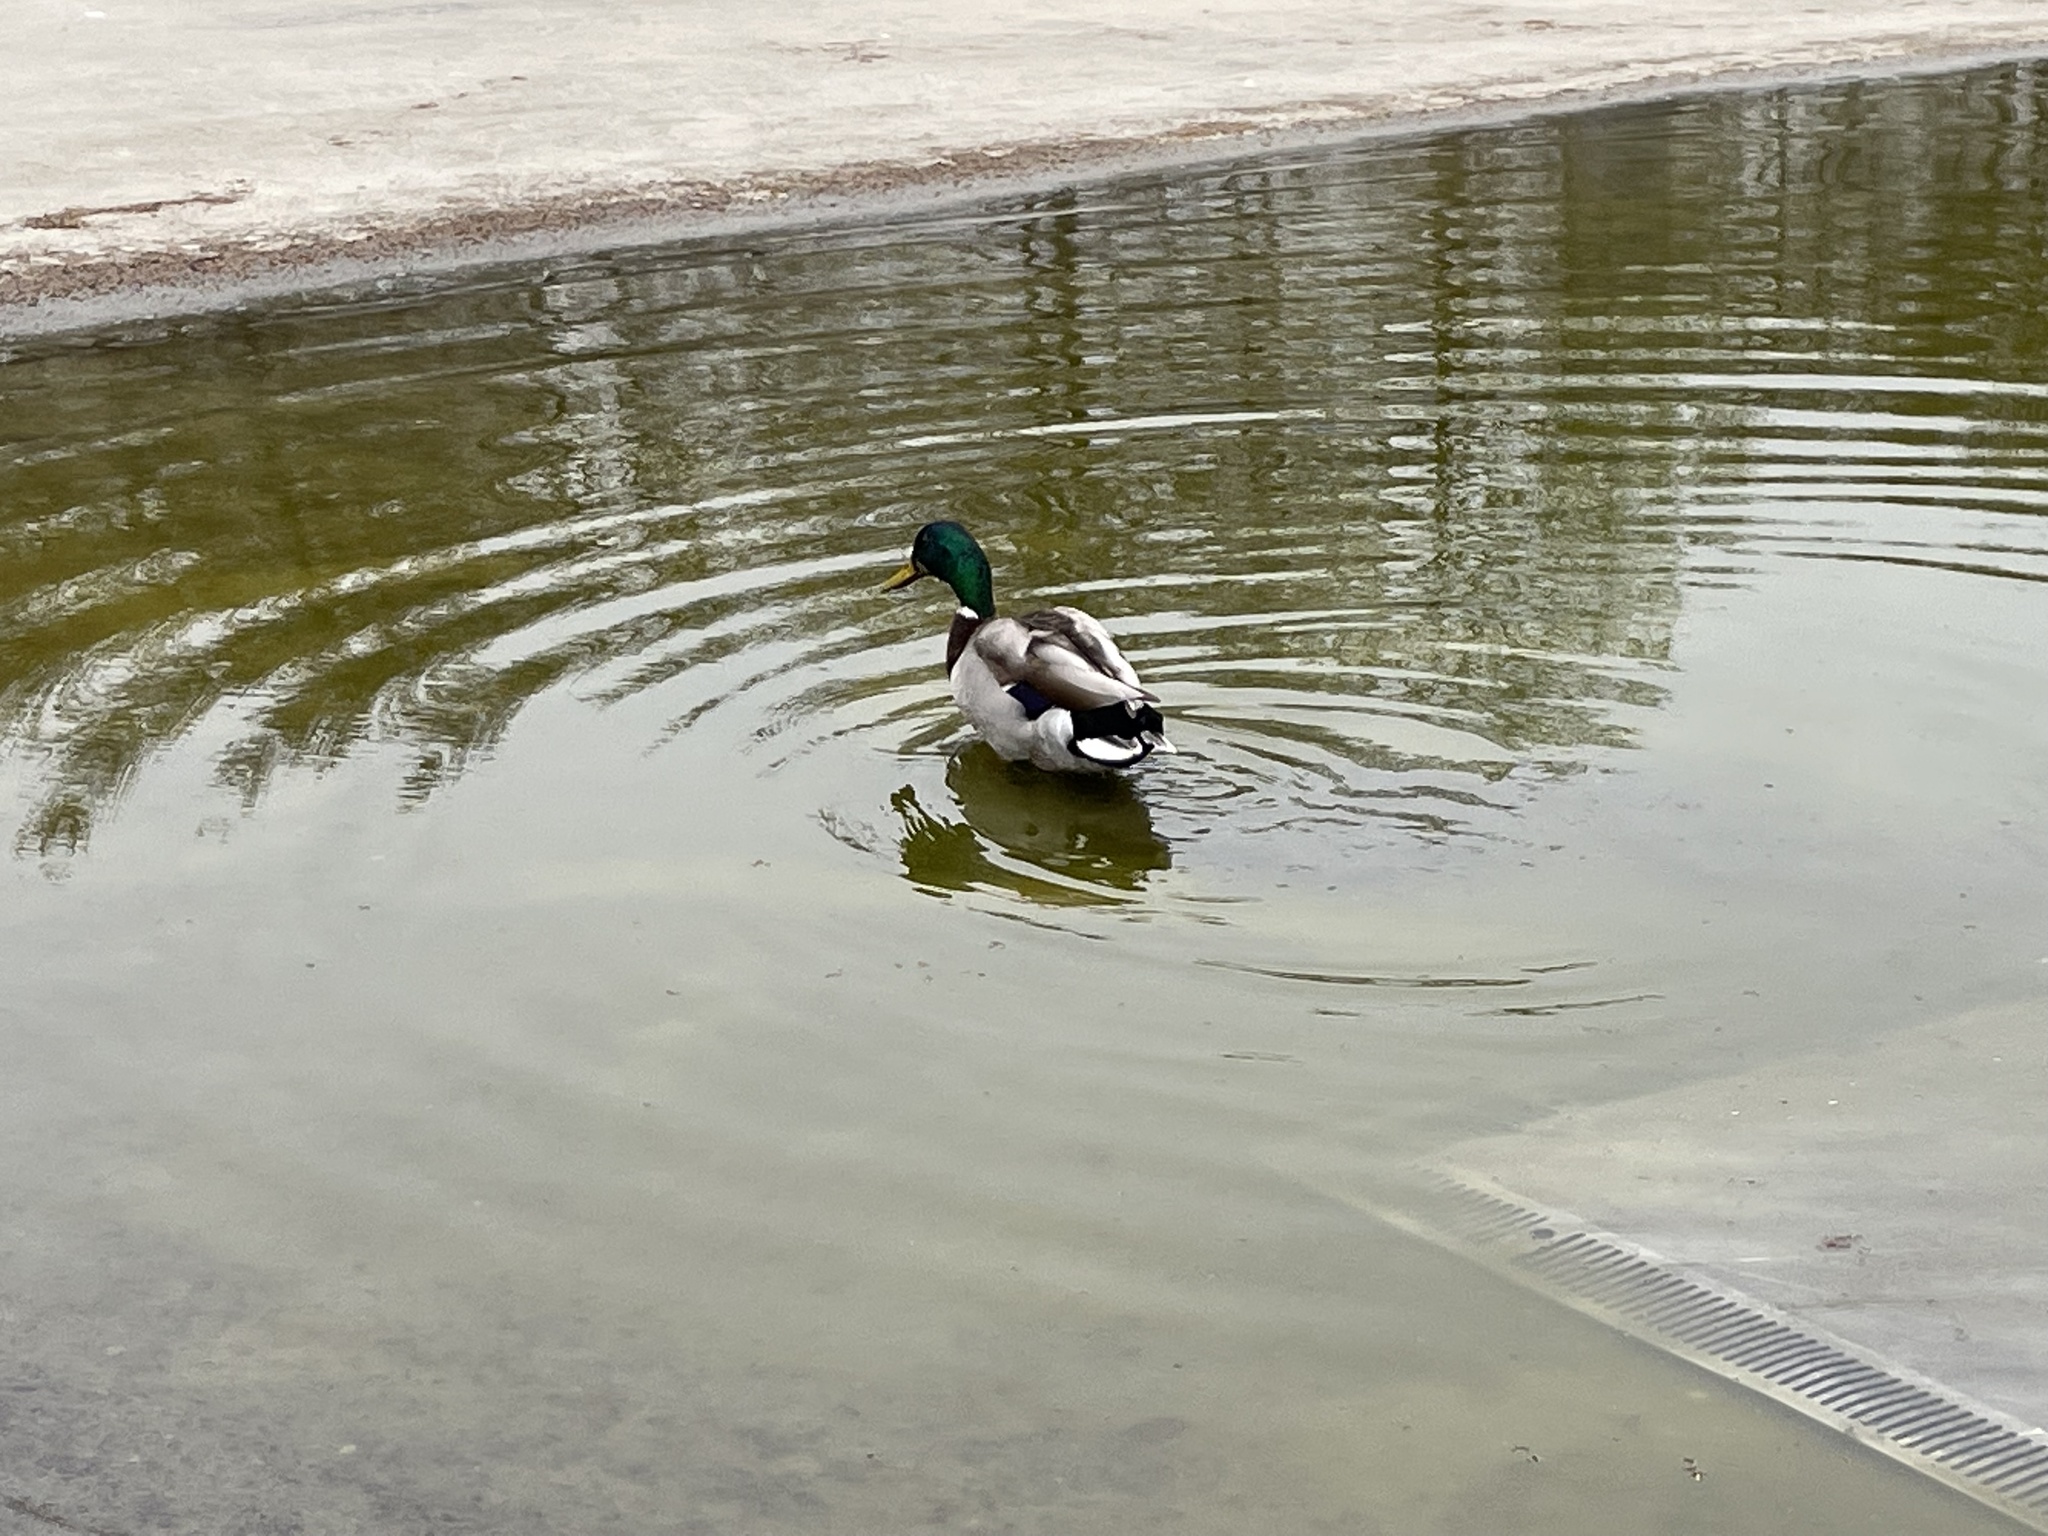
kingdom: Animalia
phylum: Chordata
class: Aves
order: Anseriformes
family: Anatidae
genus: Anas
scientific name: Anas platyrhynchos
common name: Mallard
